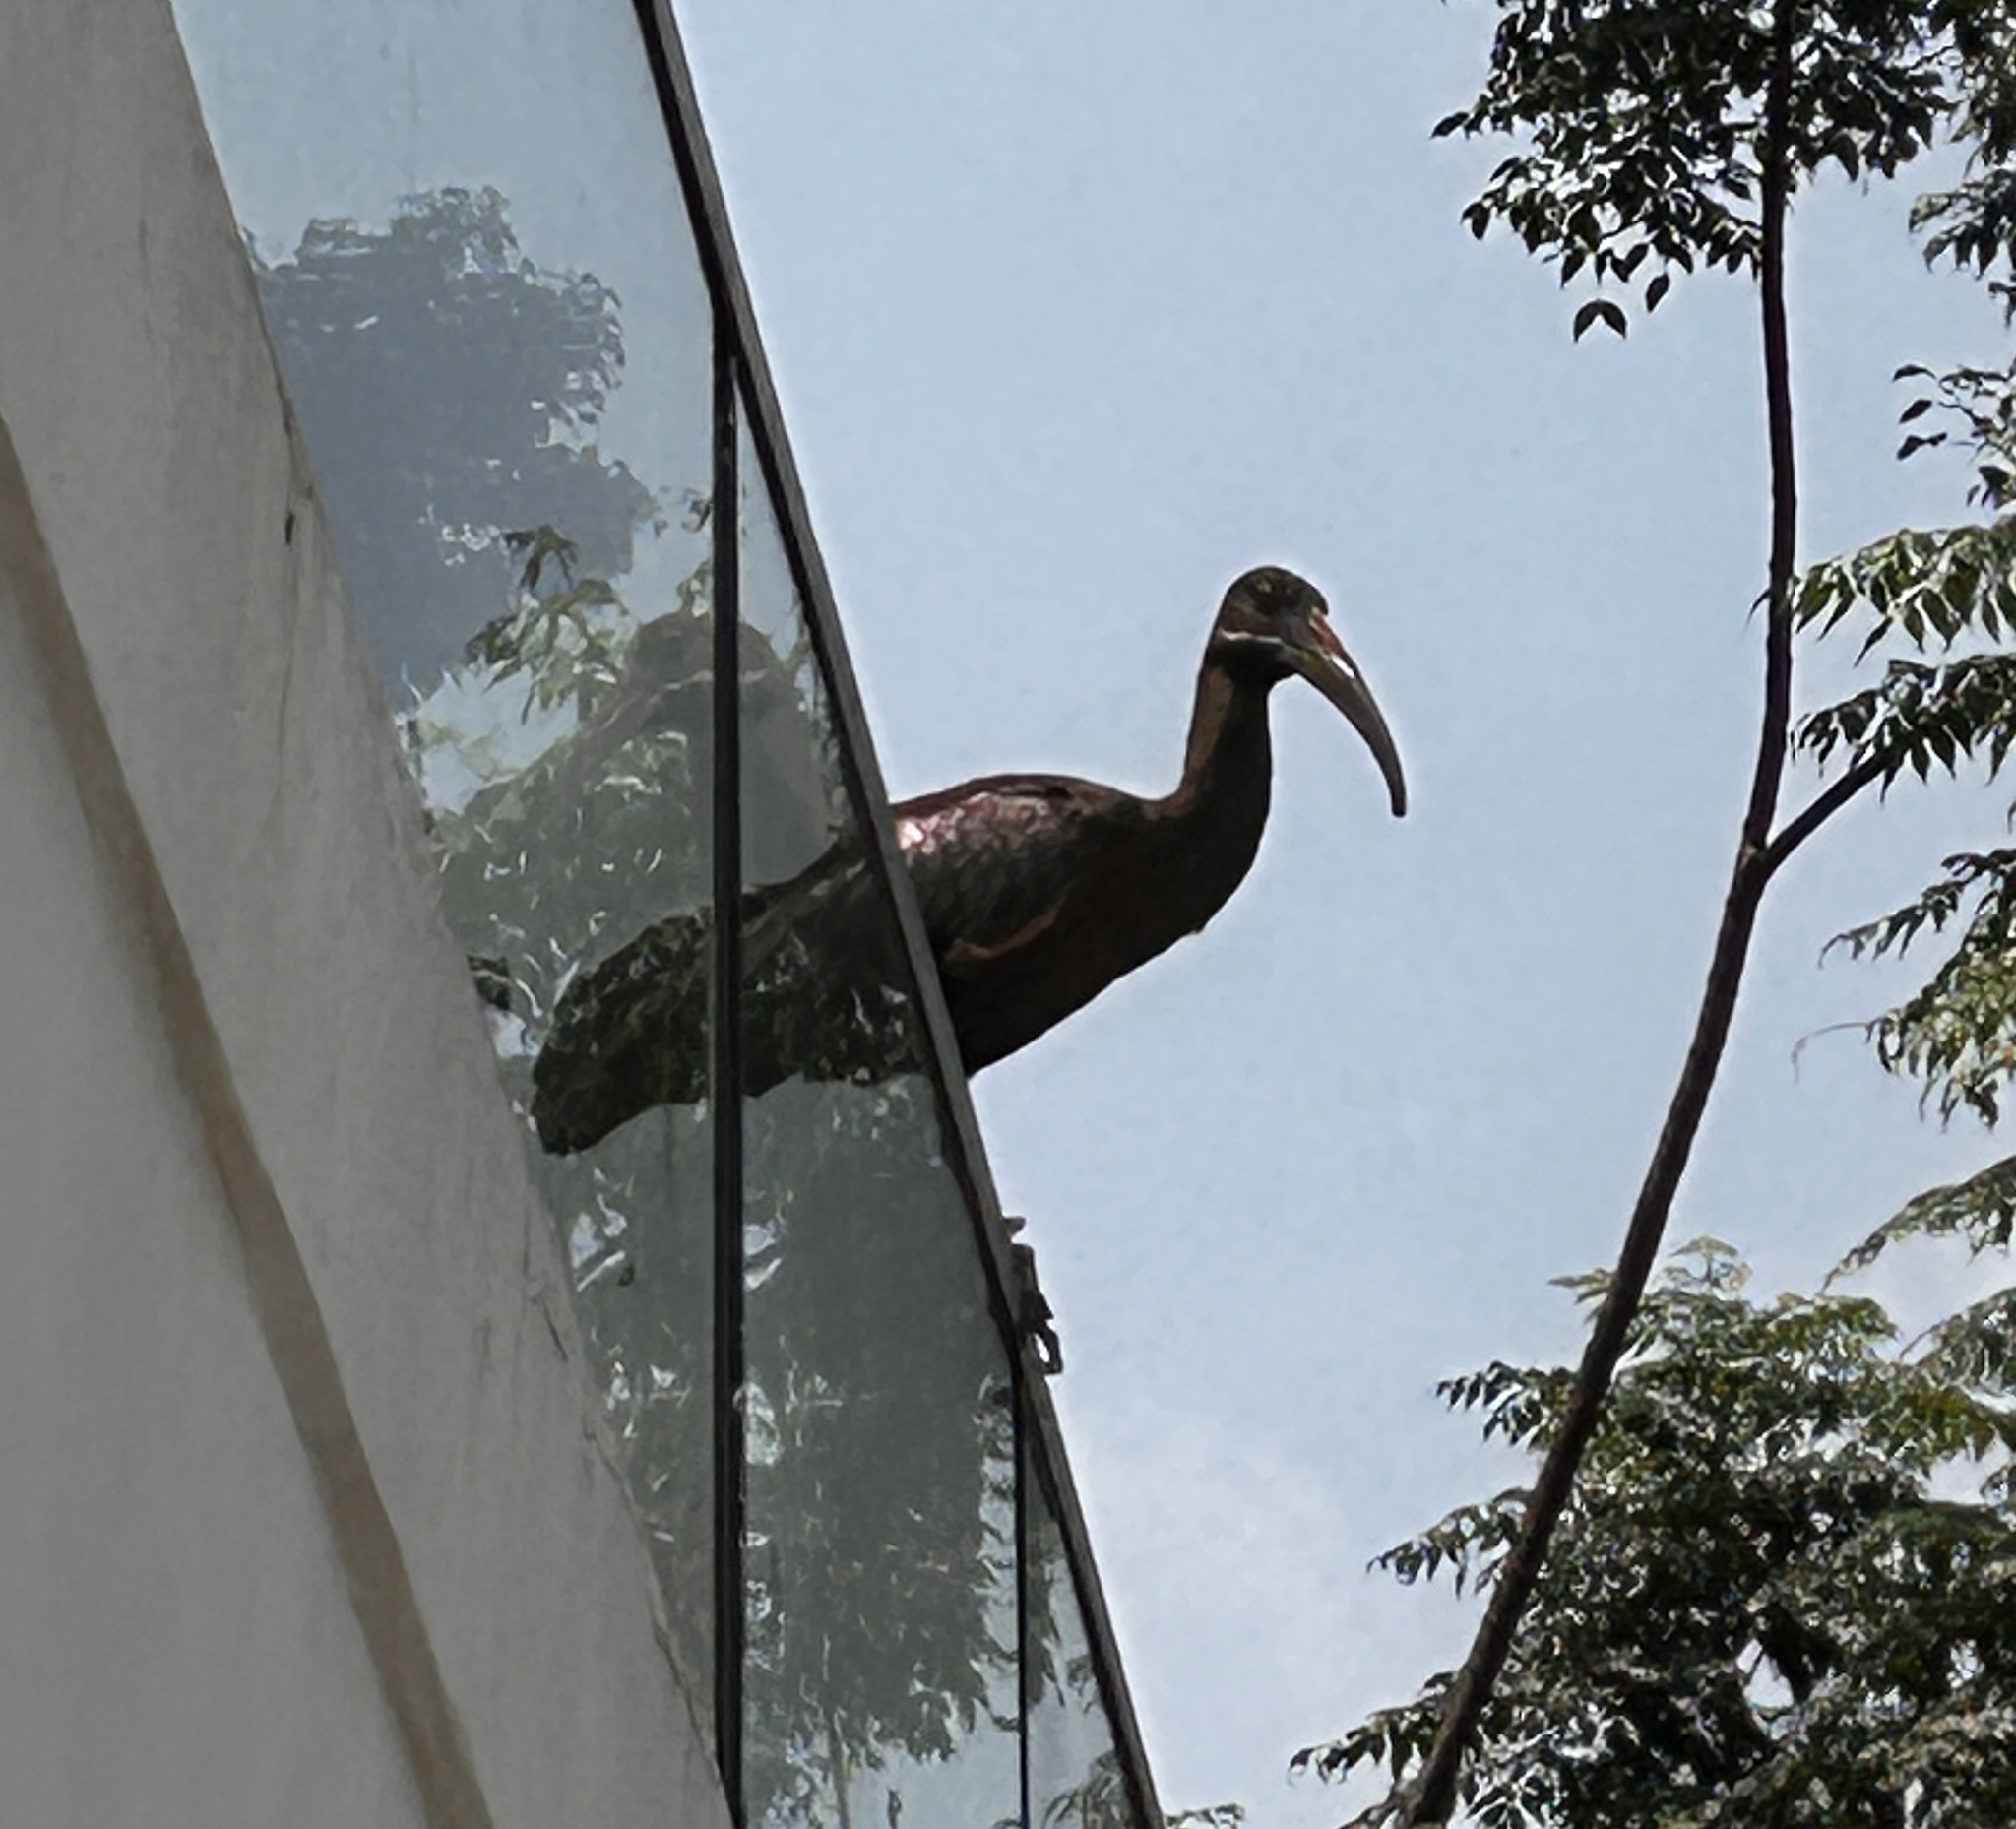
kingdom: Animalia
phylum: Chordata
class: Aves
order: Pelecaniformes
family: Threskiornithidae
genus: Bostrychia
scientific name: Bostrychia hagedash
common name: Hadada ibis
